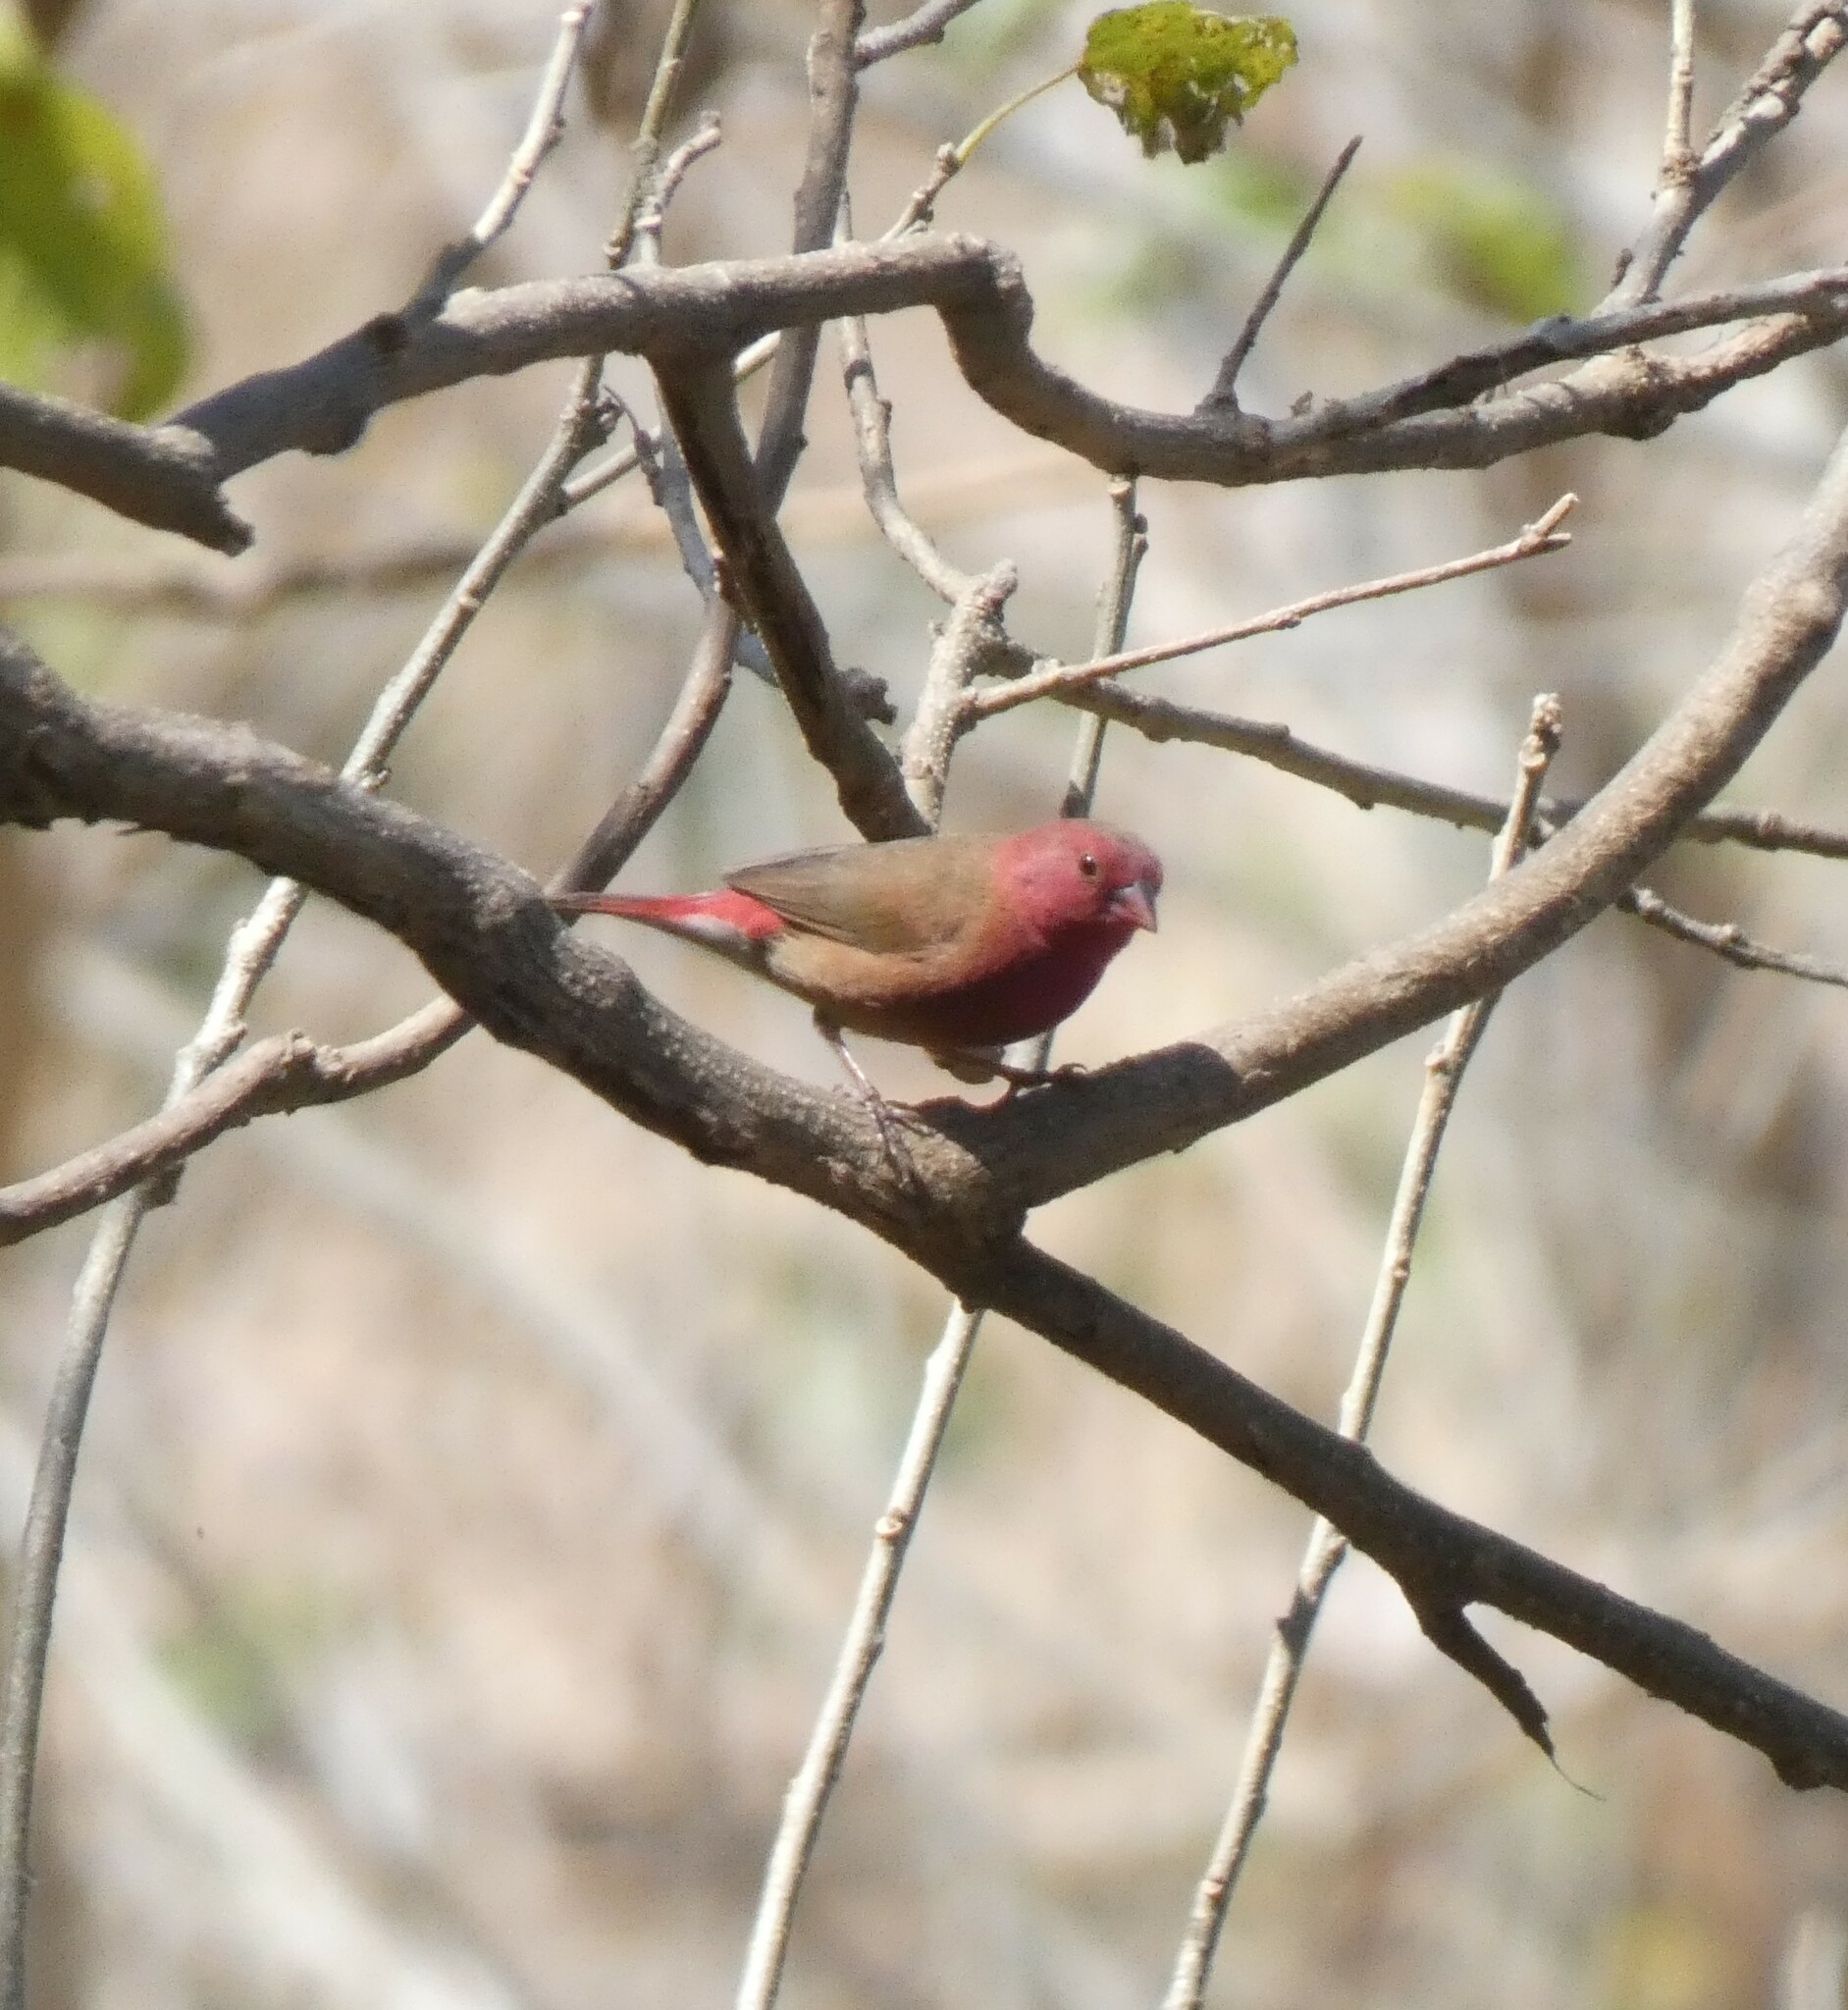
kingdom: Animalia
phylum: Chordata
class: Aves
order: Passeriformes
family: Estrildidae
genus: Lagonosticta
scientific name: Lagonosticta senegala
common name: Red-billed firefinch
